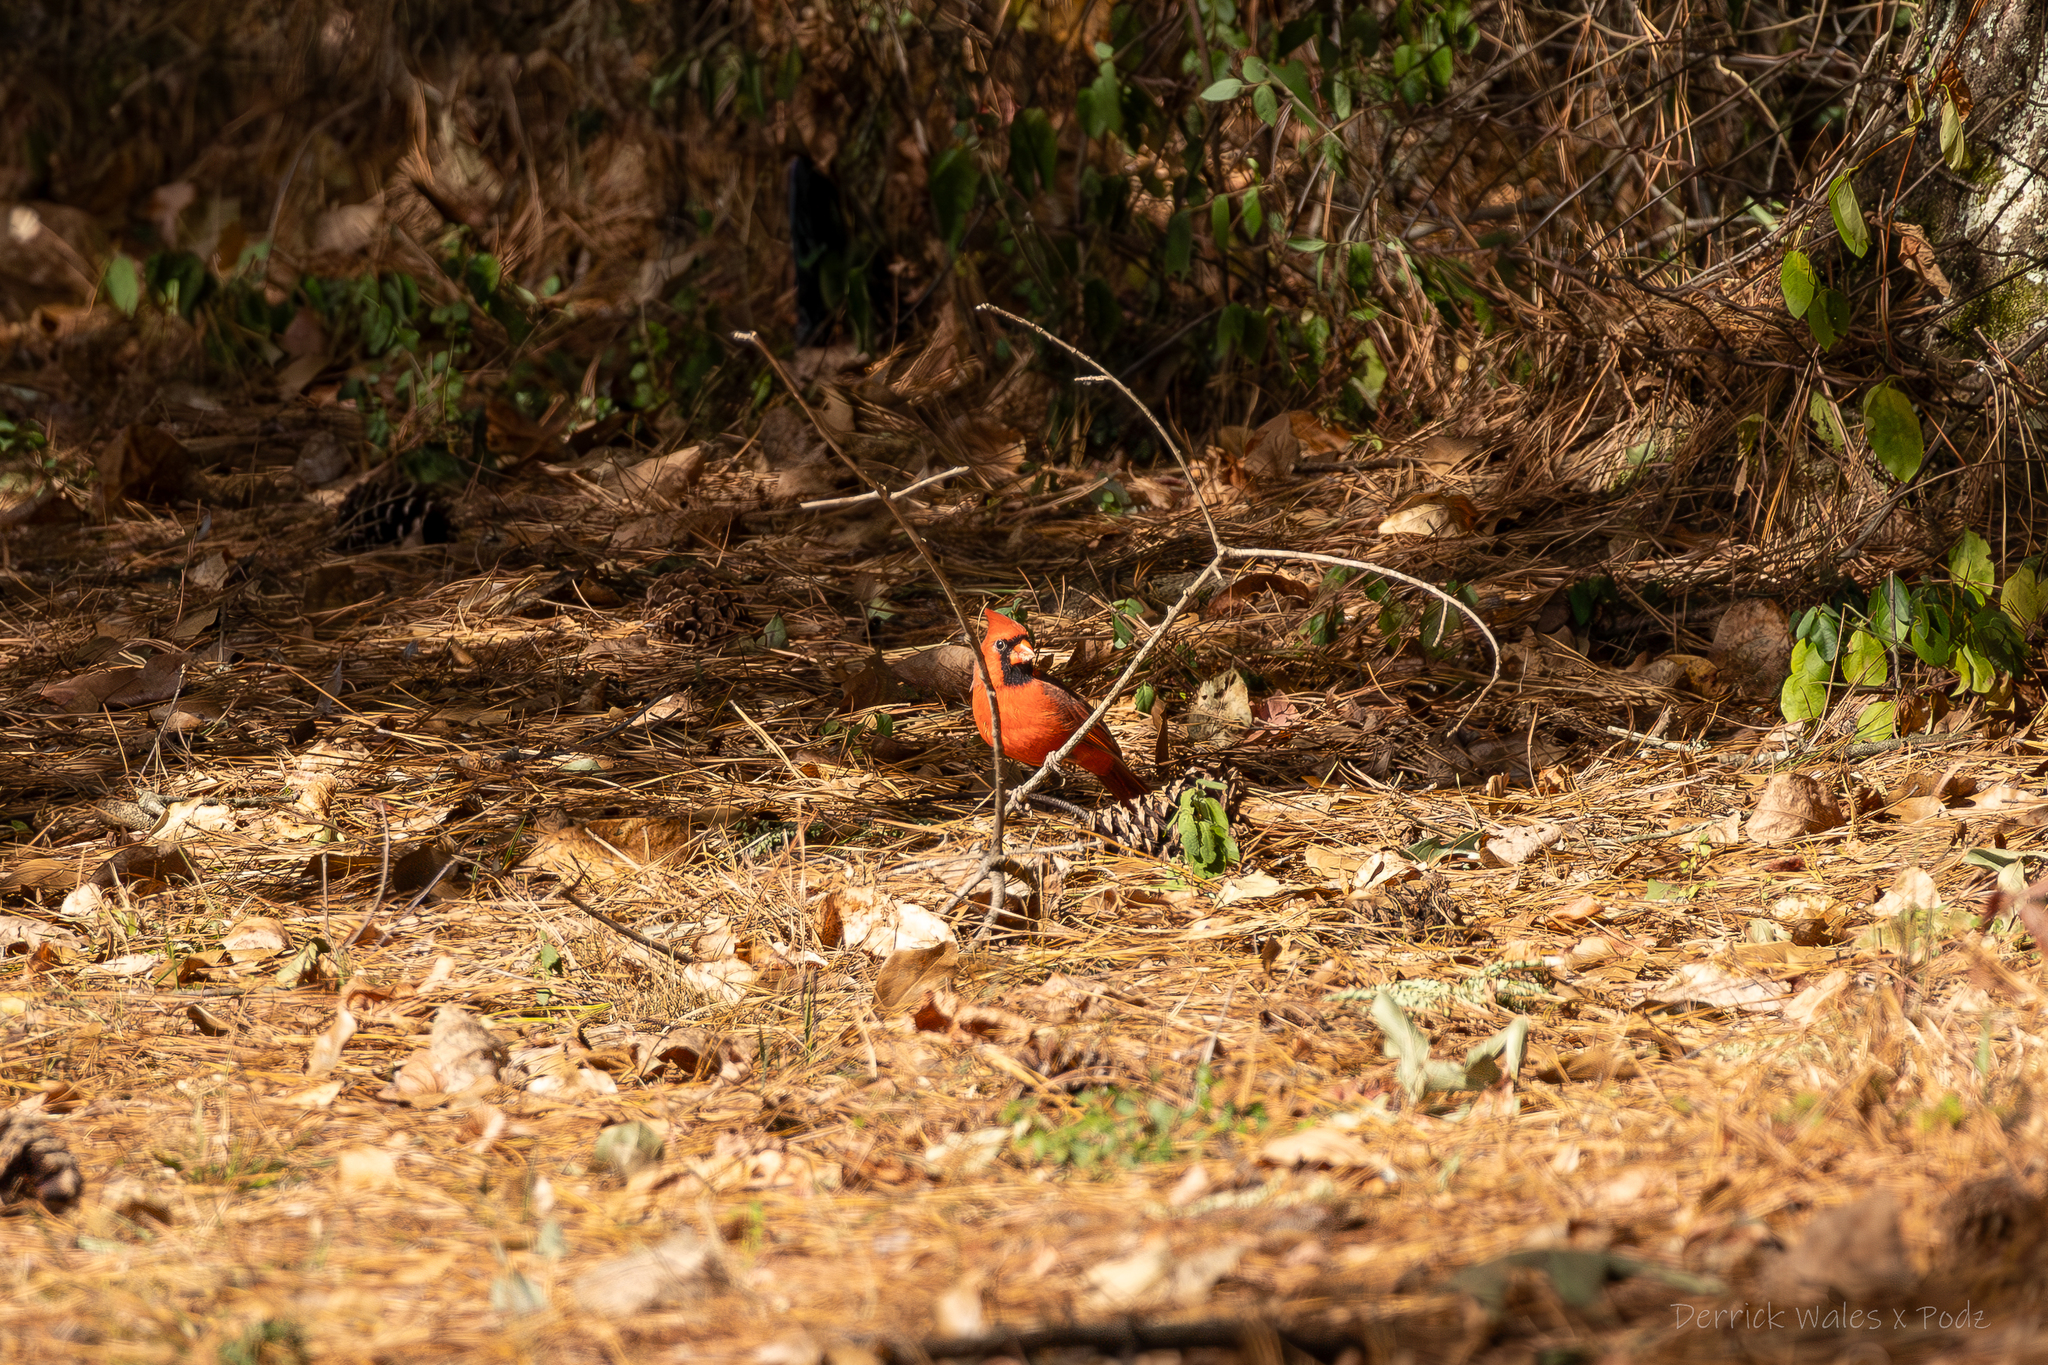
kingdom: Animalia
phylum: Chordata
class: Aves
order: Passeriformes
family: Cardinalidae
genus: Cardinalis
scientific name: Cardinalis cardinalis
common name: Northern cardinal
